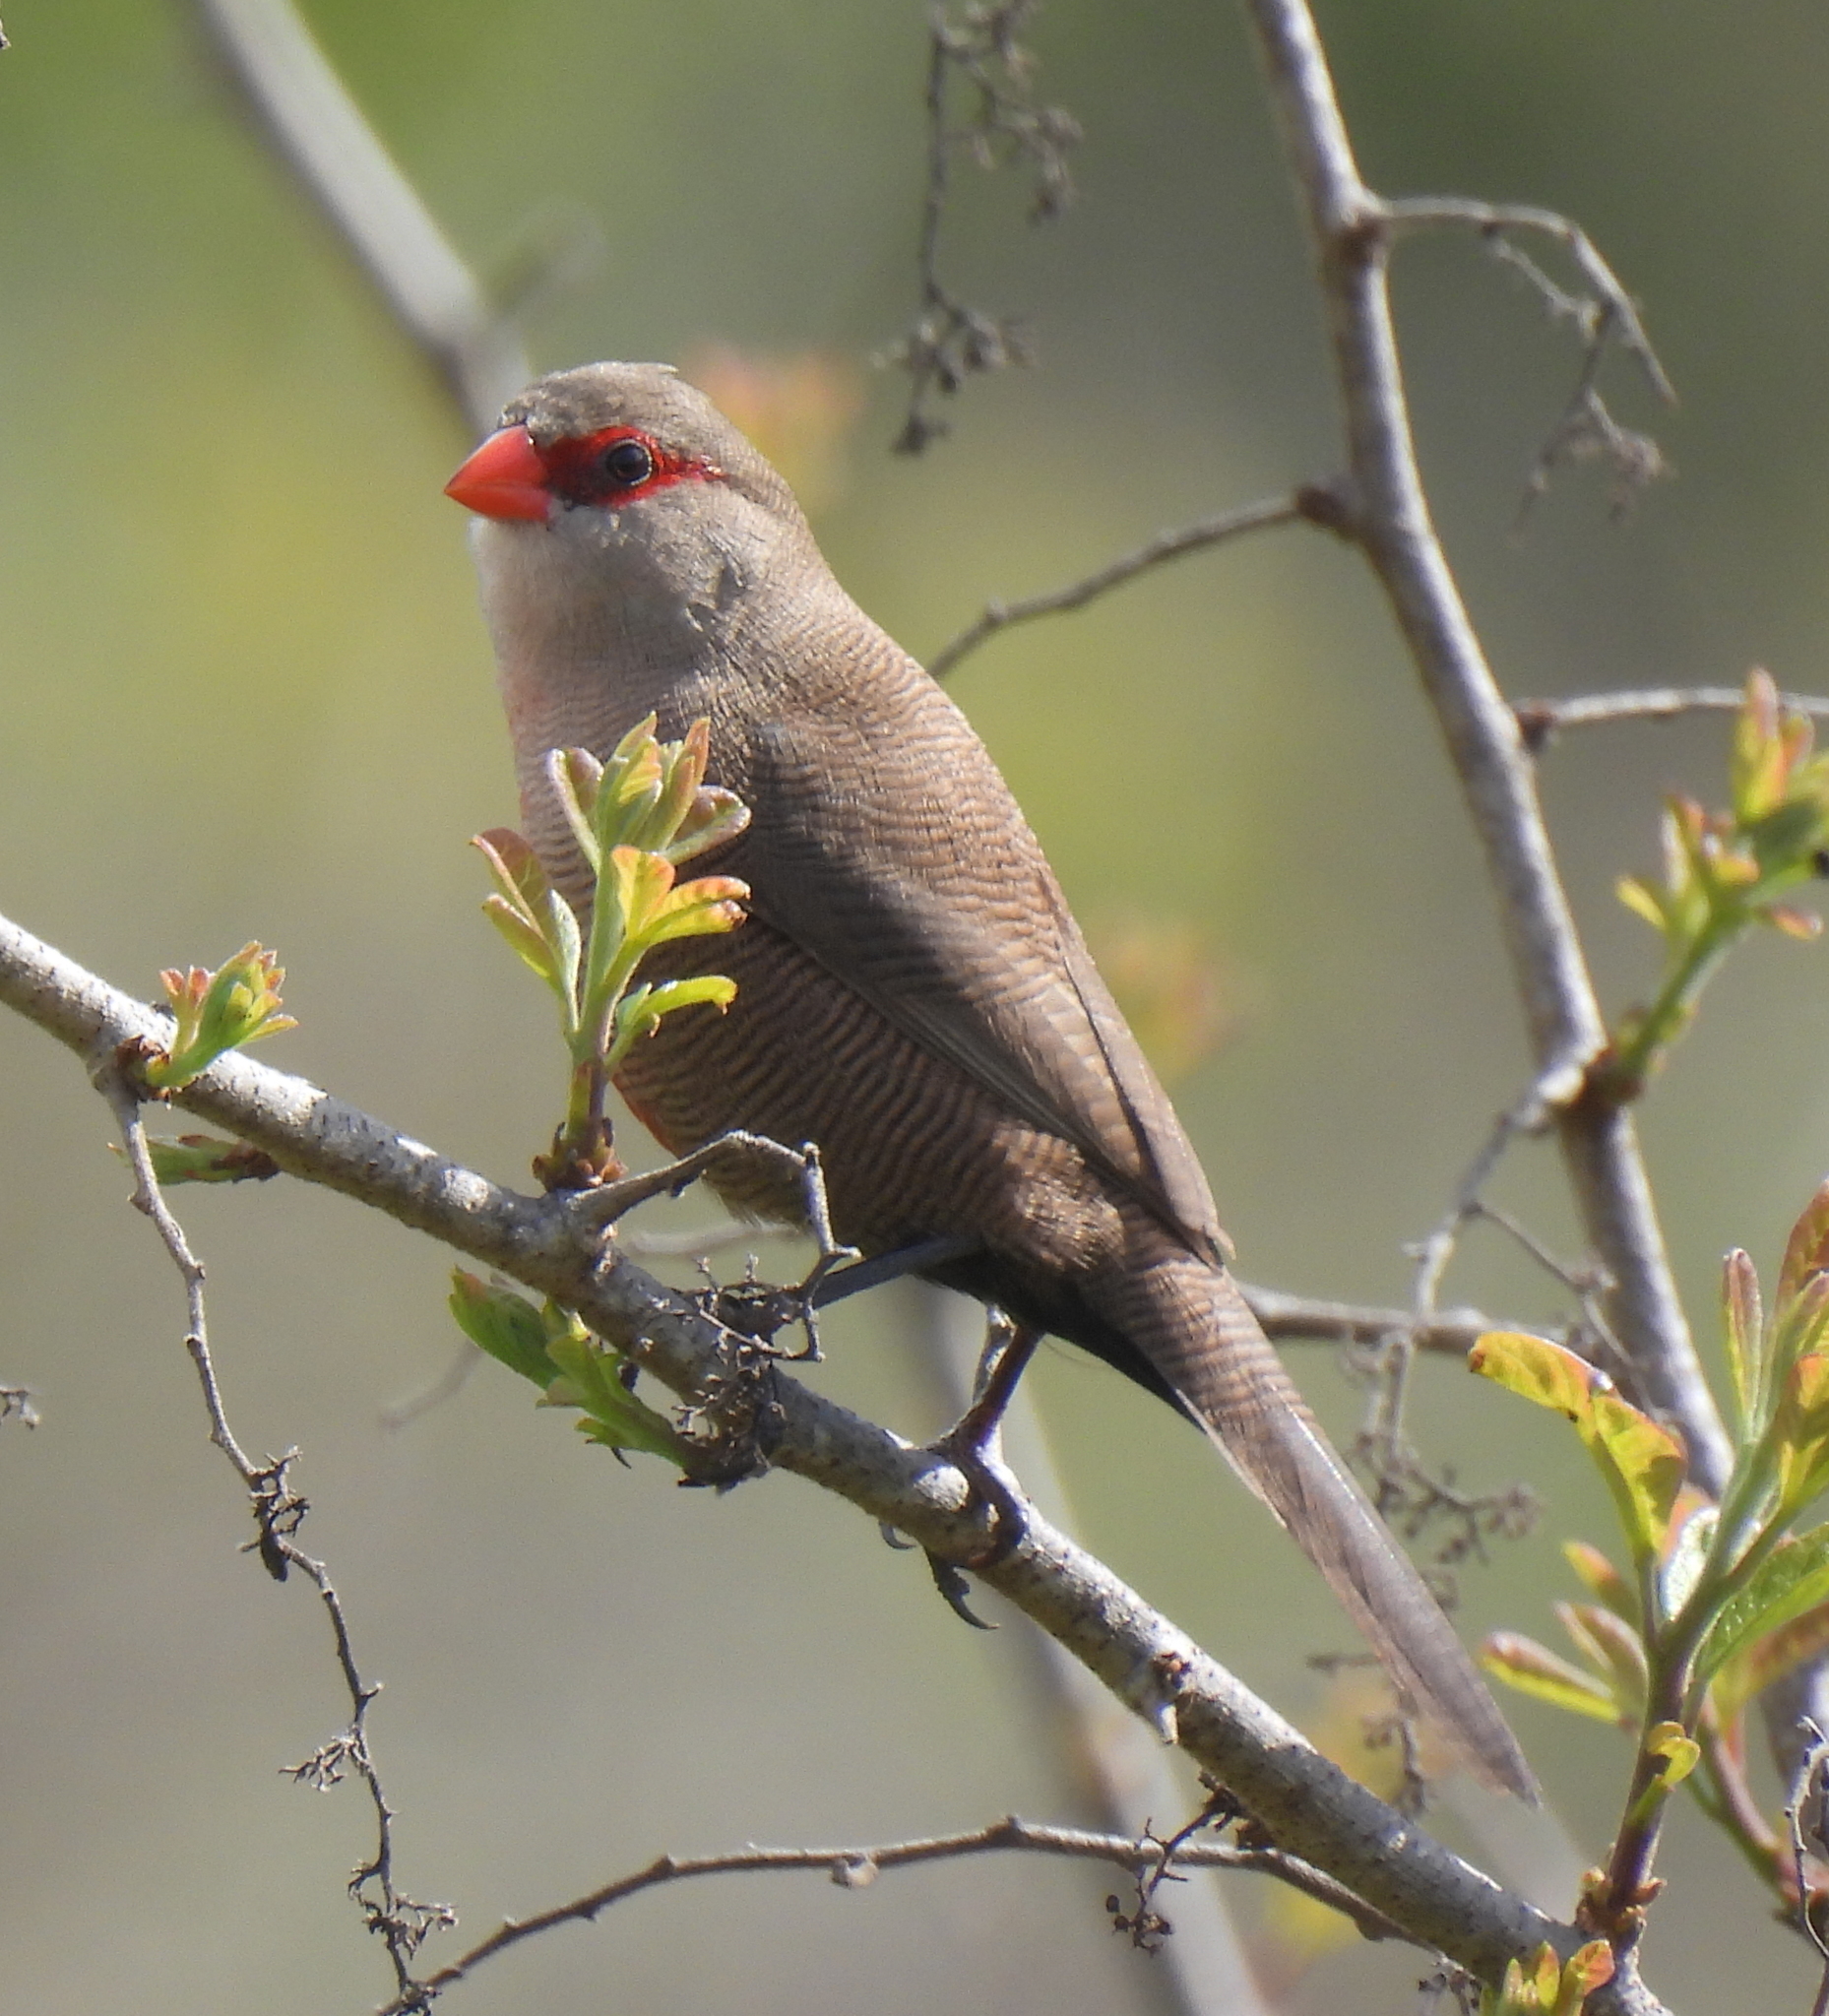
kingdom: Animalia
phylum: Chordata
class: Aves
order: Passeriformes
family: Estrildidae
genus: Estrilda
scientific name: Estrilda astrild
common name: Common waxbill
